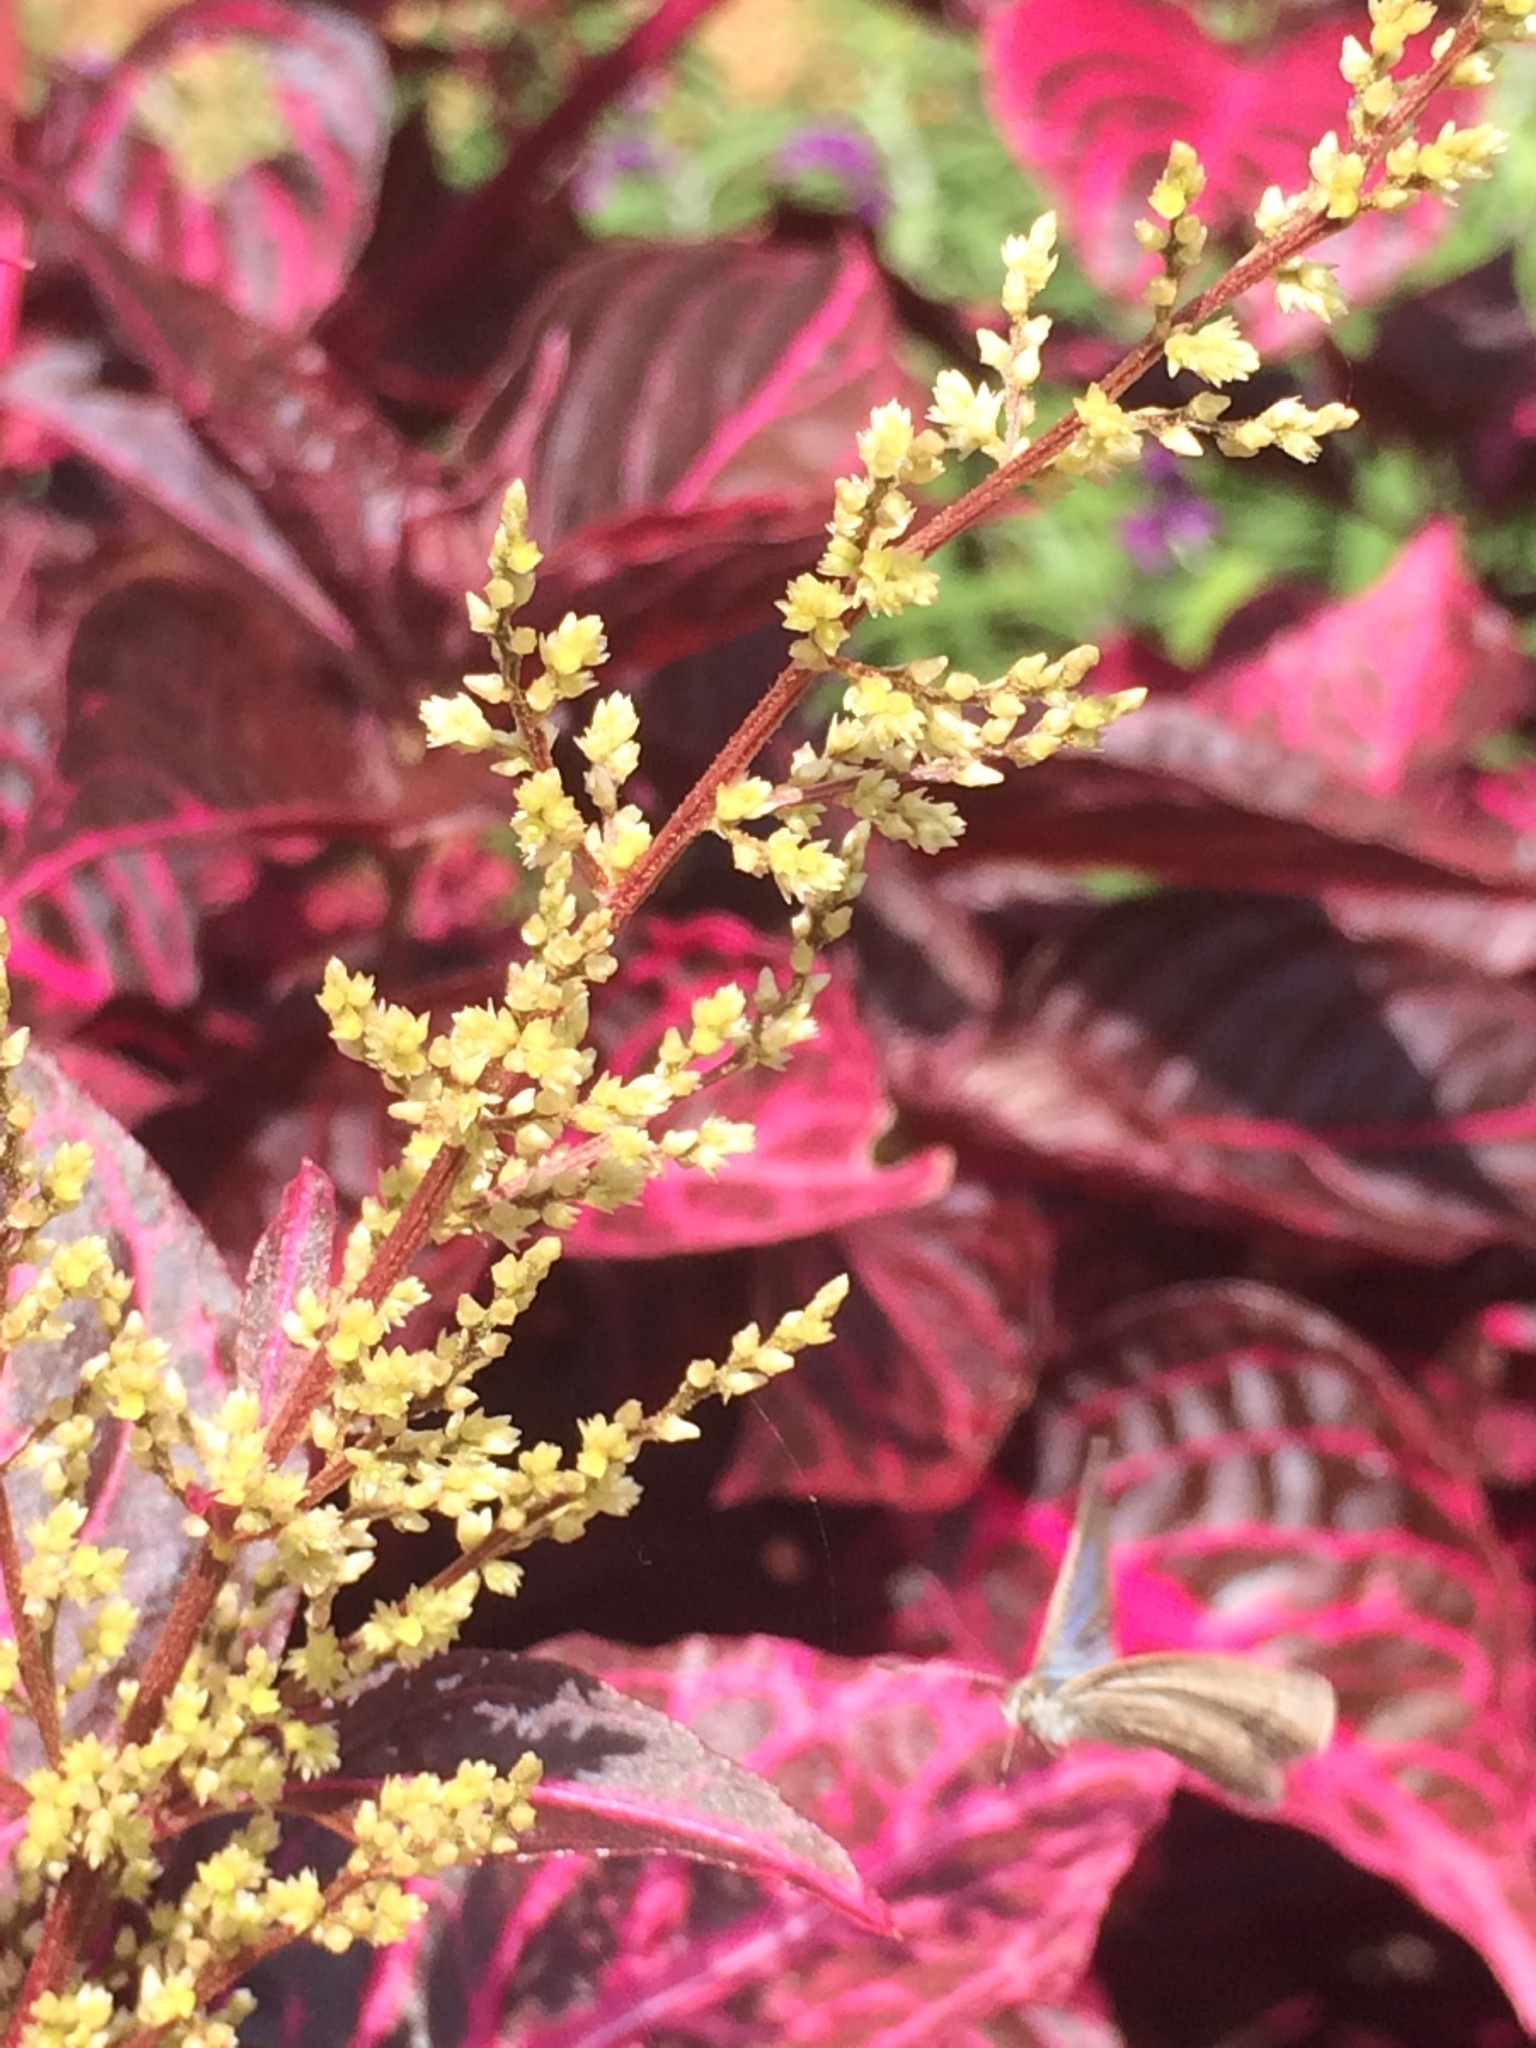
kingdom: Animalia
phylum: Arthropoda
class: Insecta
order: Lepidoptera
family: Lycaenidae
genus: Zizina
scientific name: Zizina otis
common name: Lesser grass blue
